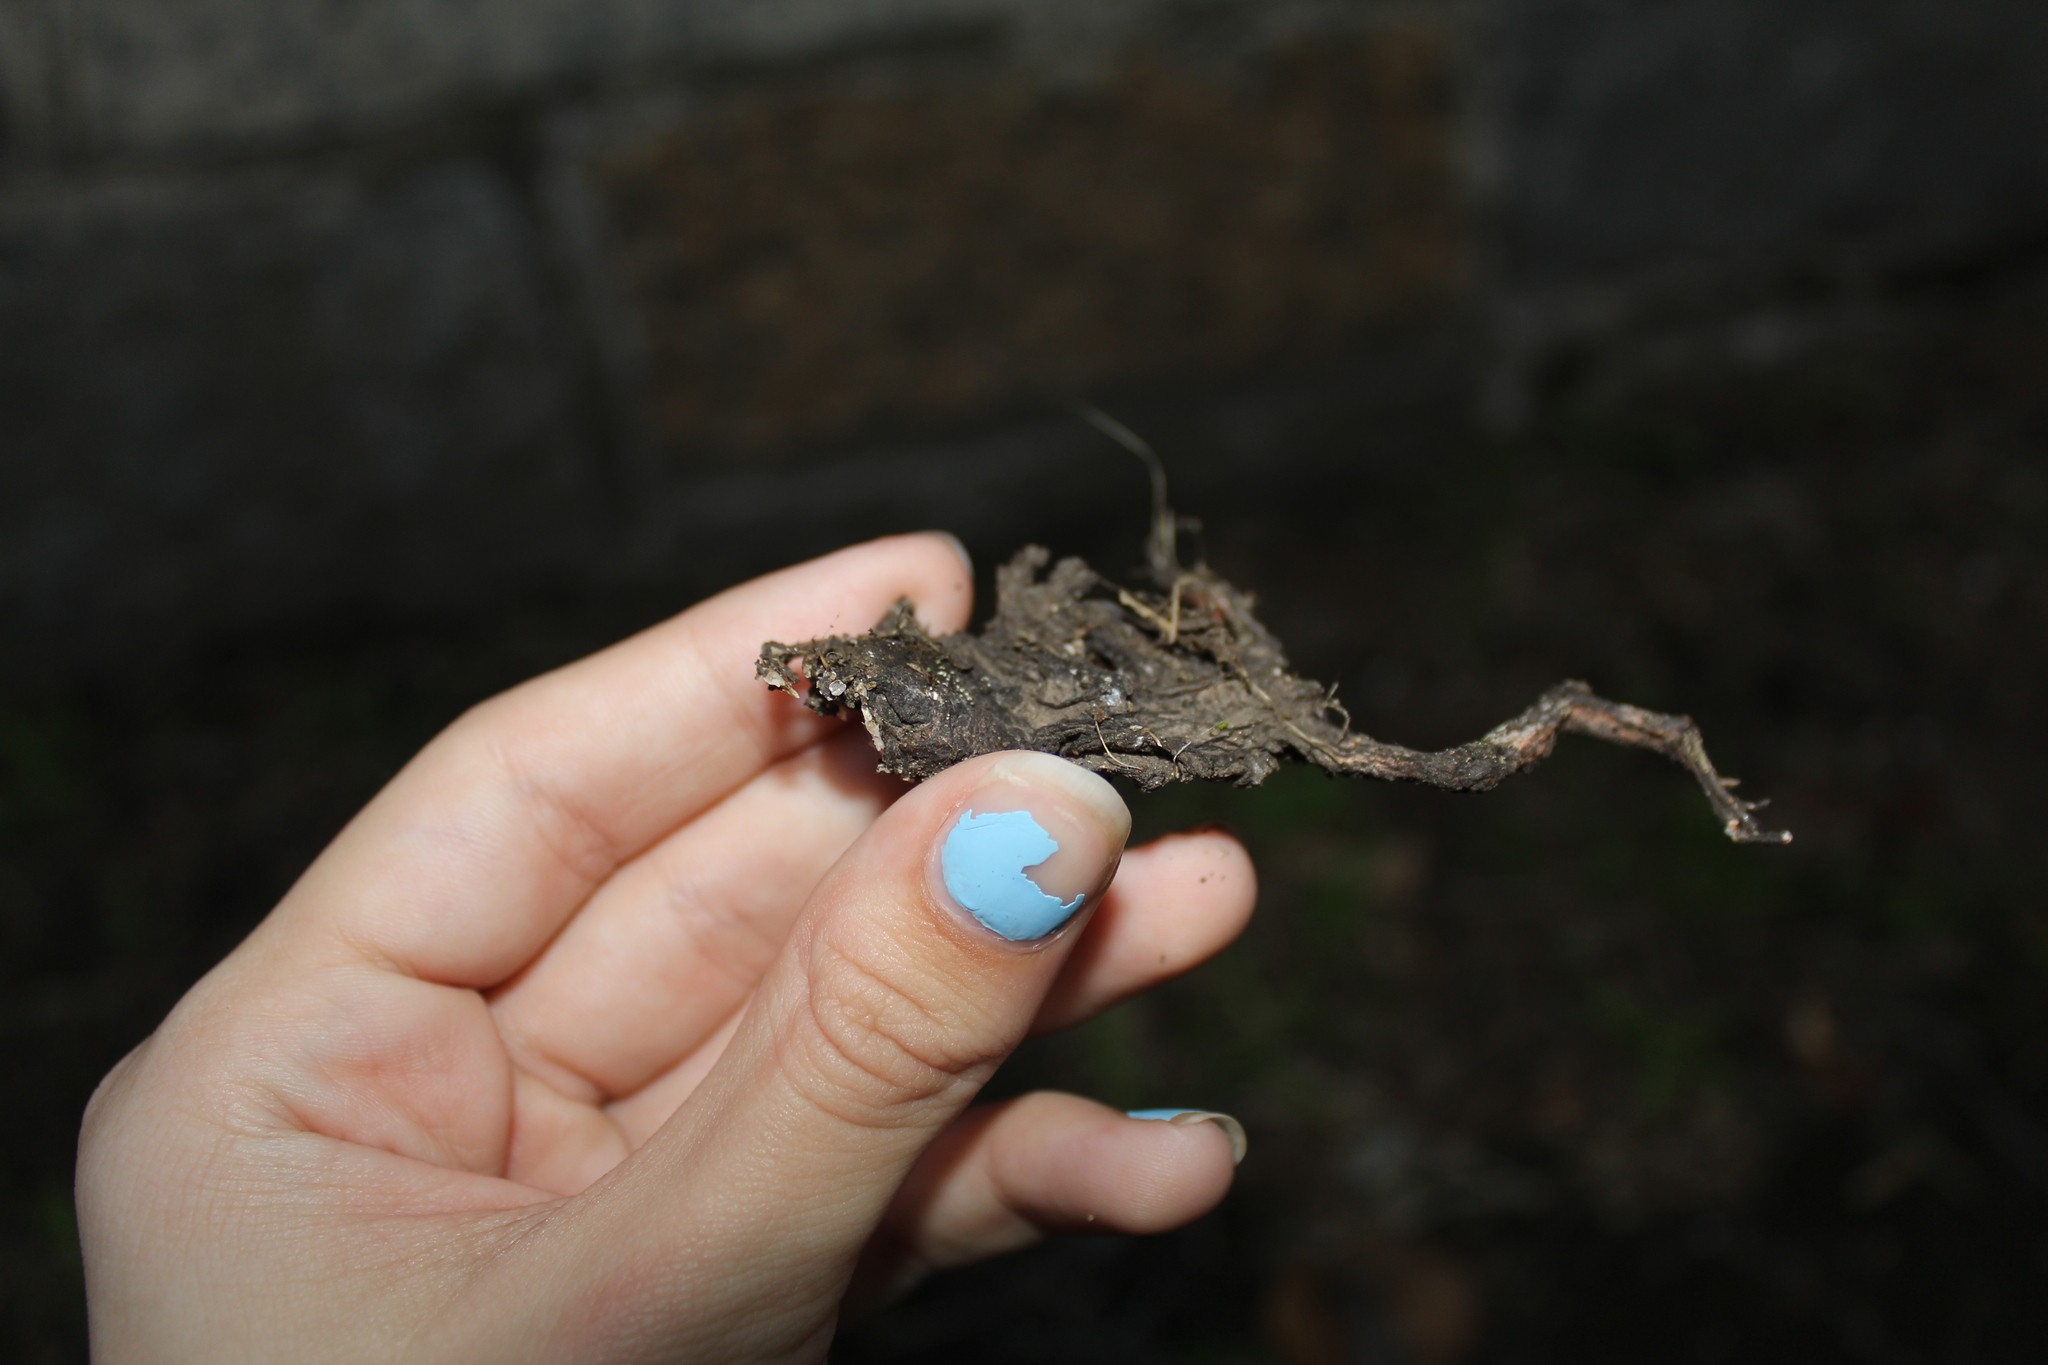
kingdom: Animalia
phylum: Chordata
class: Amphibia
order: Anura
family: Bufonidae
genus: Anaxyrus
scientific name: Anaxyrus americanus
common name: American toad
